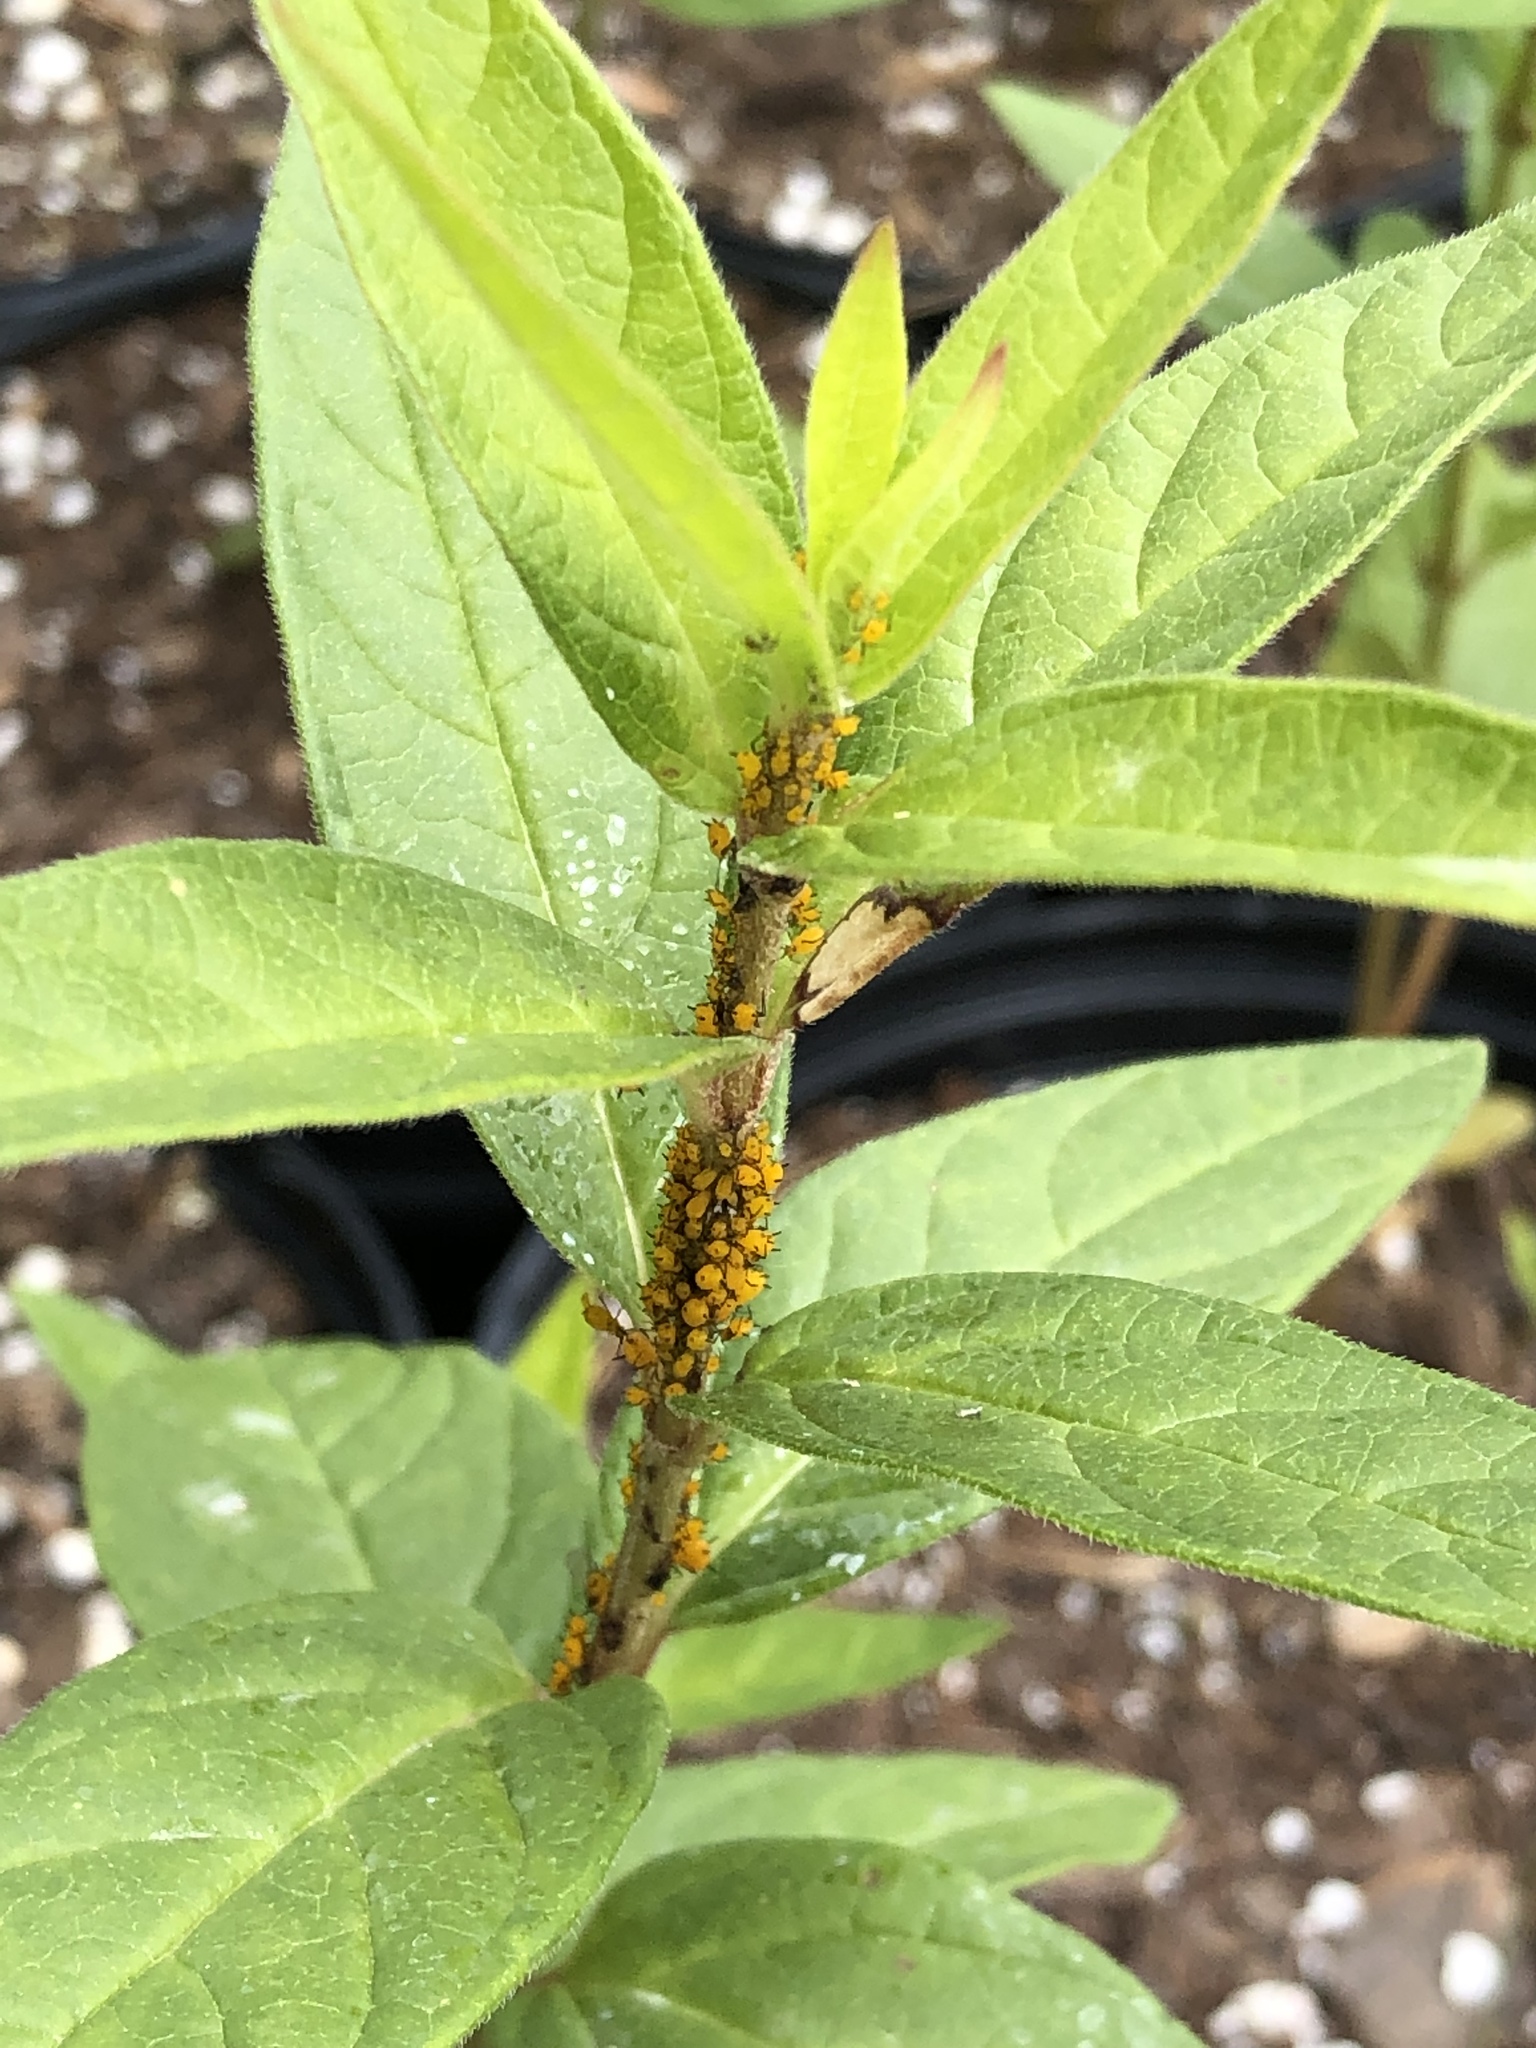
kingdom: Animalia
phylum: Arthropoda
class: Insecta
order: Hemiptera
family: Aphididae
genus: Aphis
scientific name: Aphis nerii
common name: Oleander aphid
